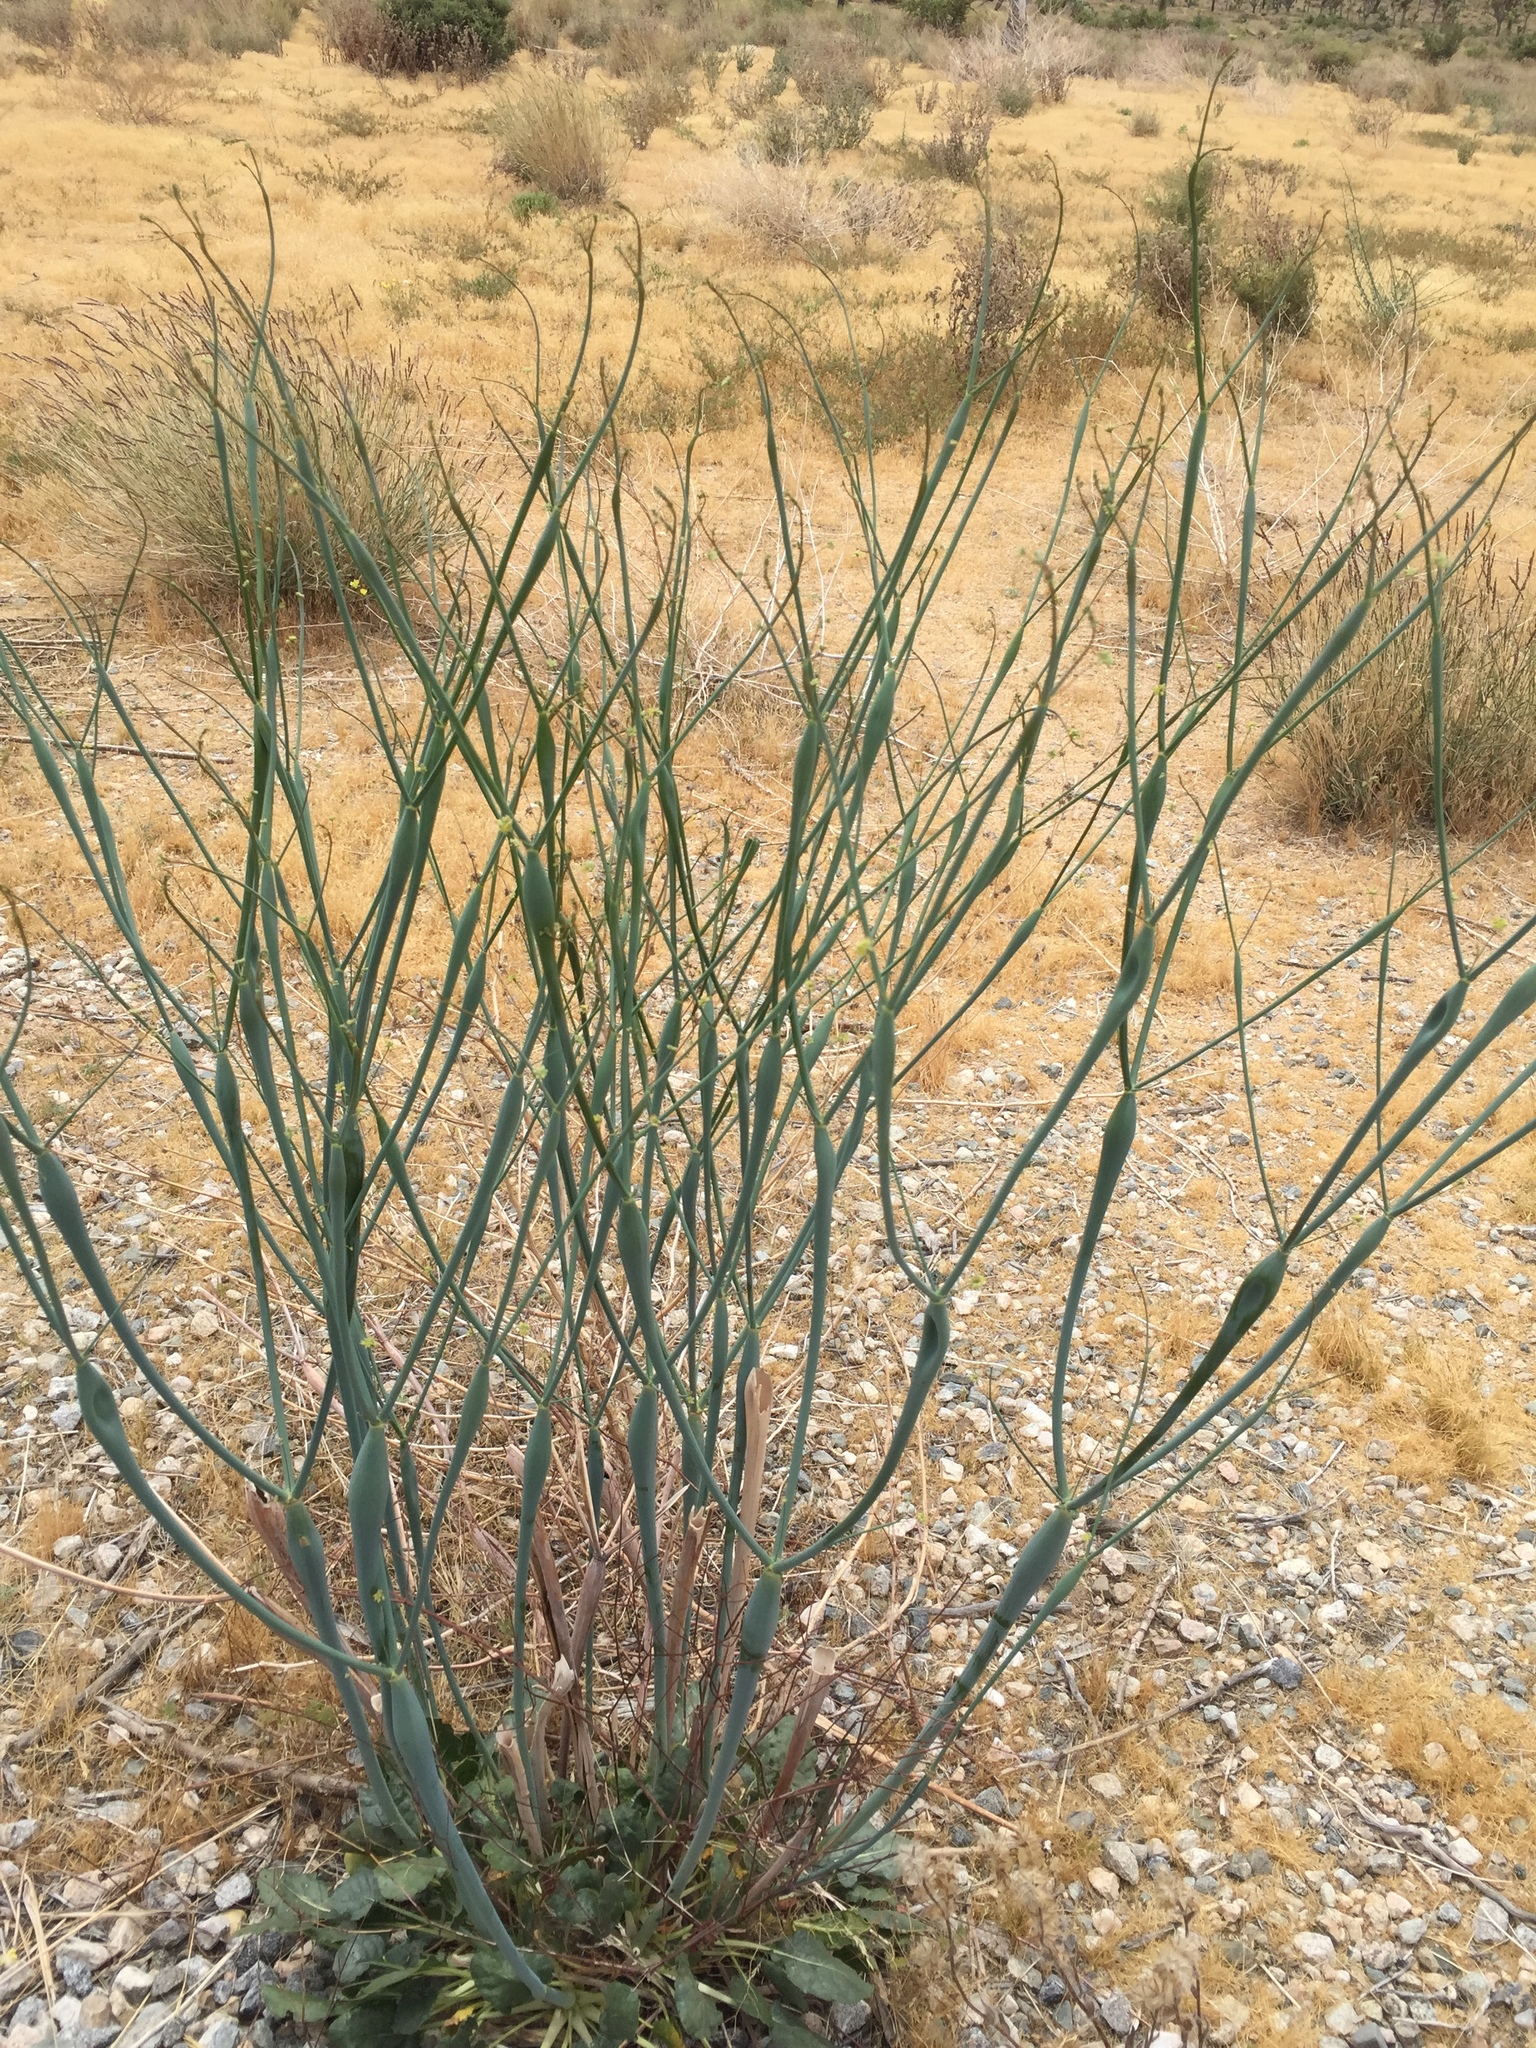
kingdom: Plantae
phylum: Tracheophyta
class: Magnoliopsida
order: Caryophyllales
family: Polygonaceae
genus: Eriogonum
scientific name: Eriogonum inflatum
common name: Desert trumpet
